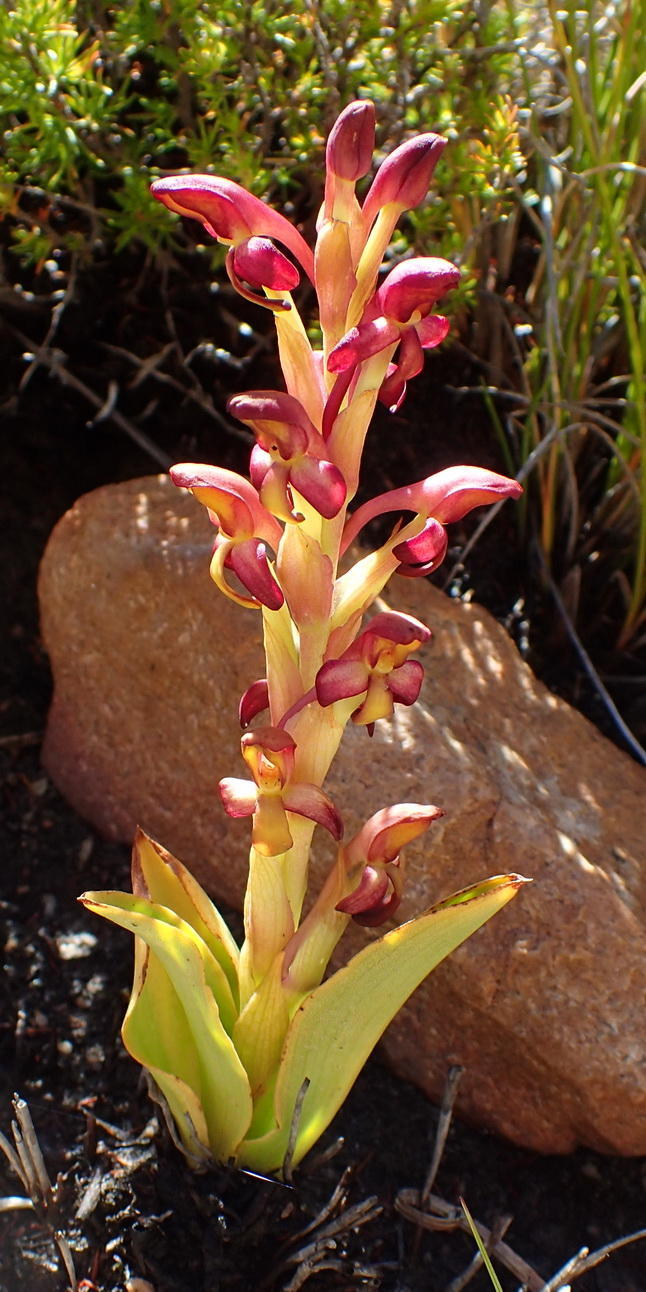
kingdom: Plantae
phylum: Tracheophyta
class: Liliopsida
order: Asparagales
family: Orchidaceae
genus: Disa
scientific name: Disa bolusiana
